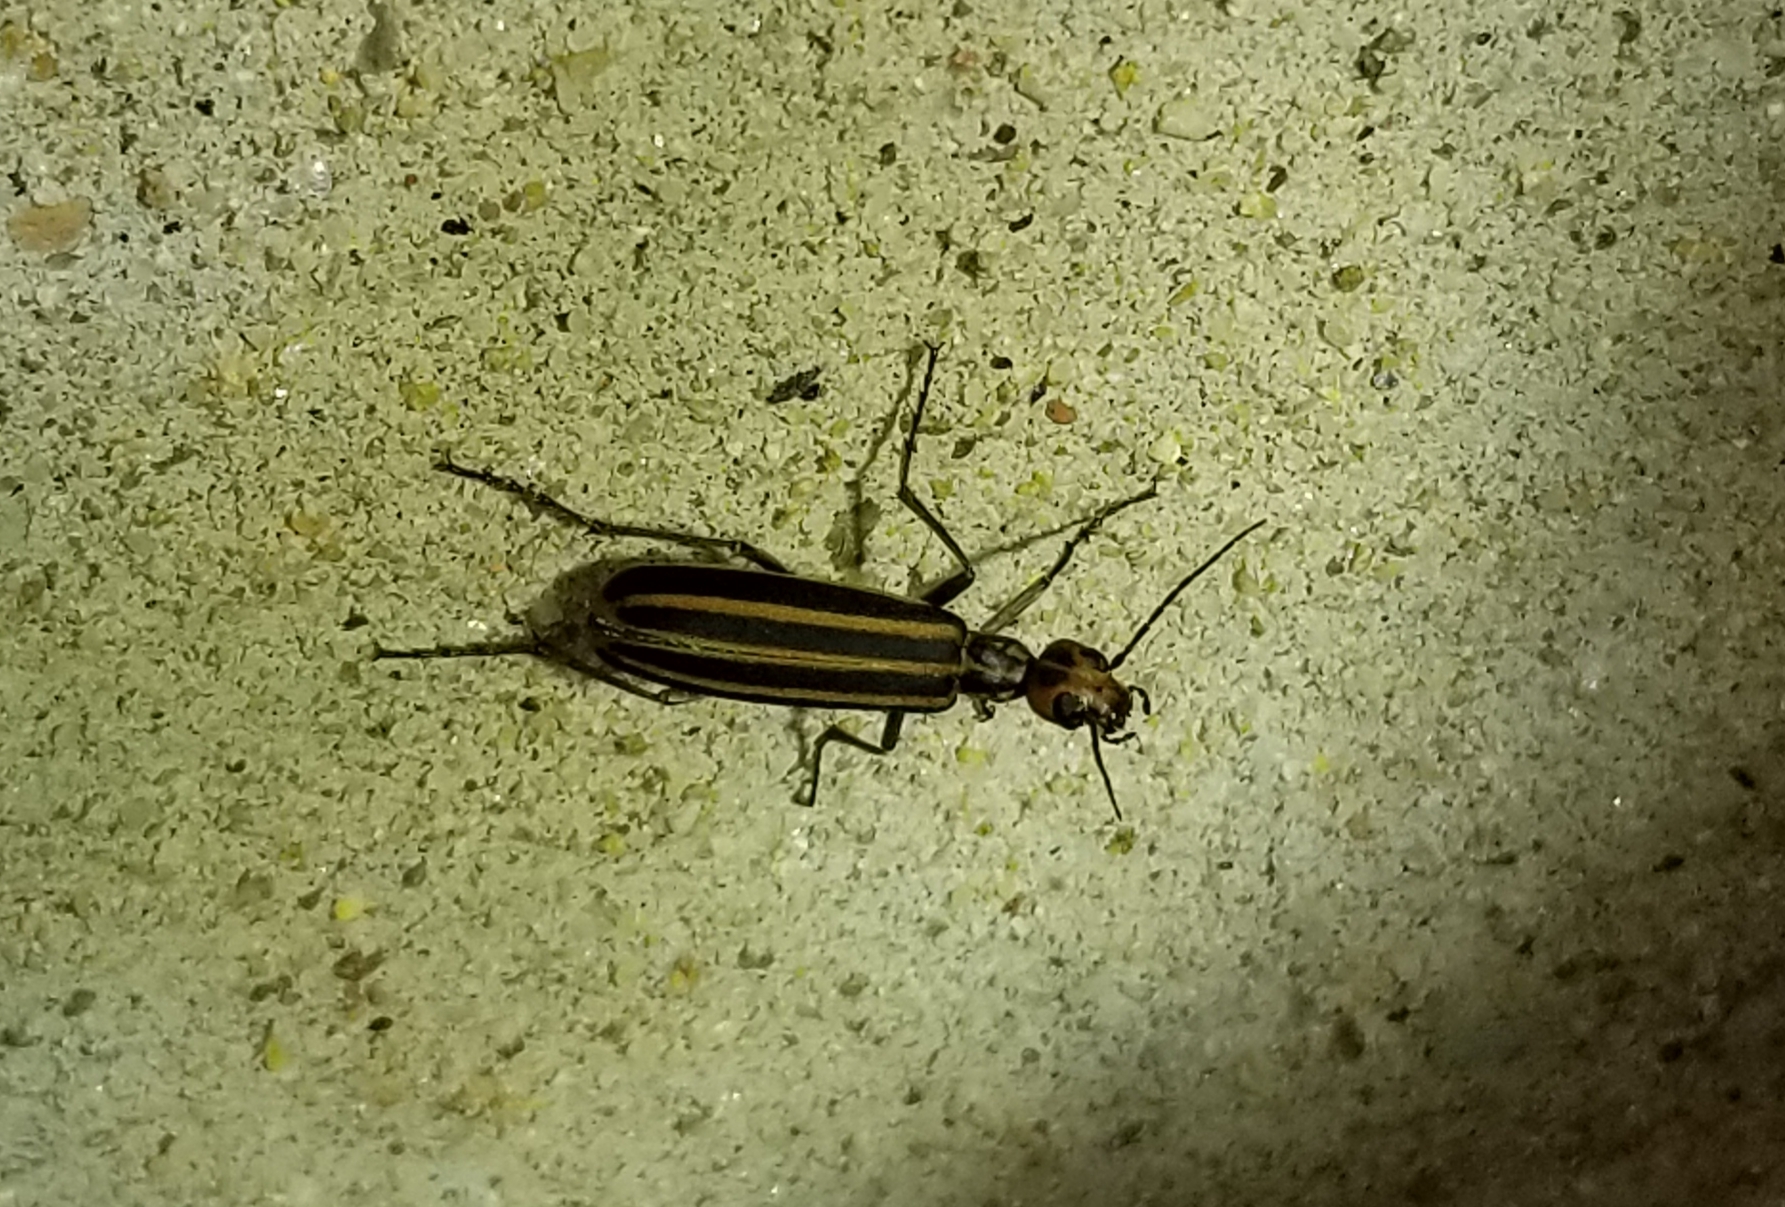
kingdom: Animalia
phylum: Arthropoda
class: Insecta
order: Coleoptera
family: Meloidae
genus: Epicauta
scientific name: Epicauta vittata
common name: Old-fashioned potato beetle
